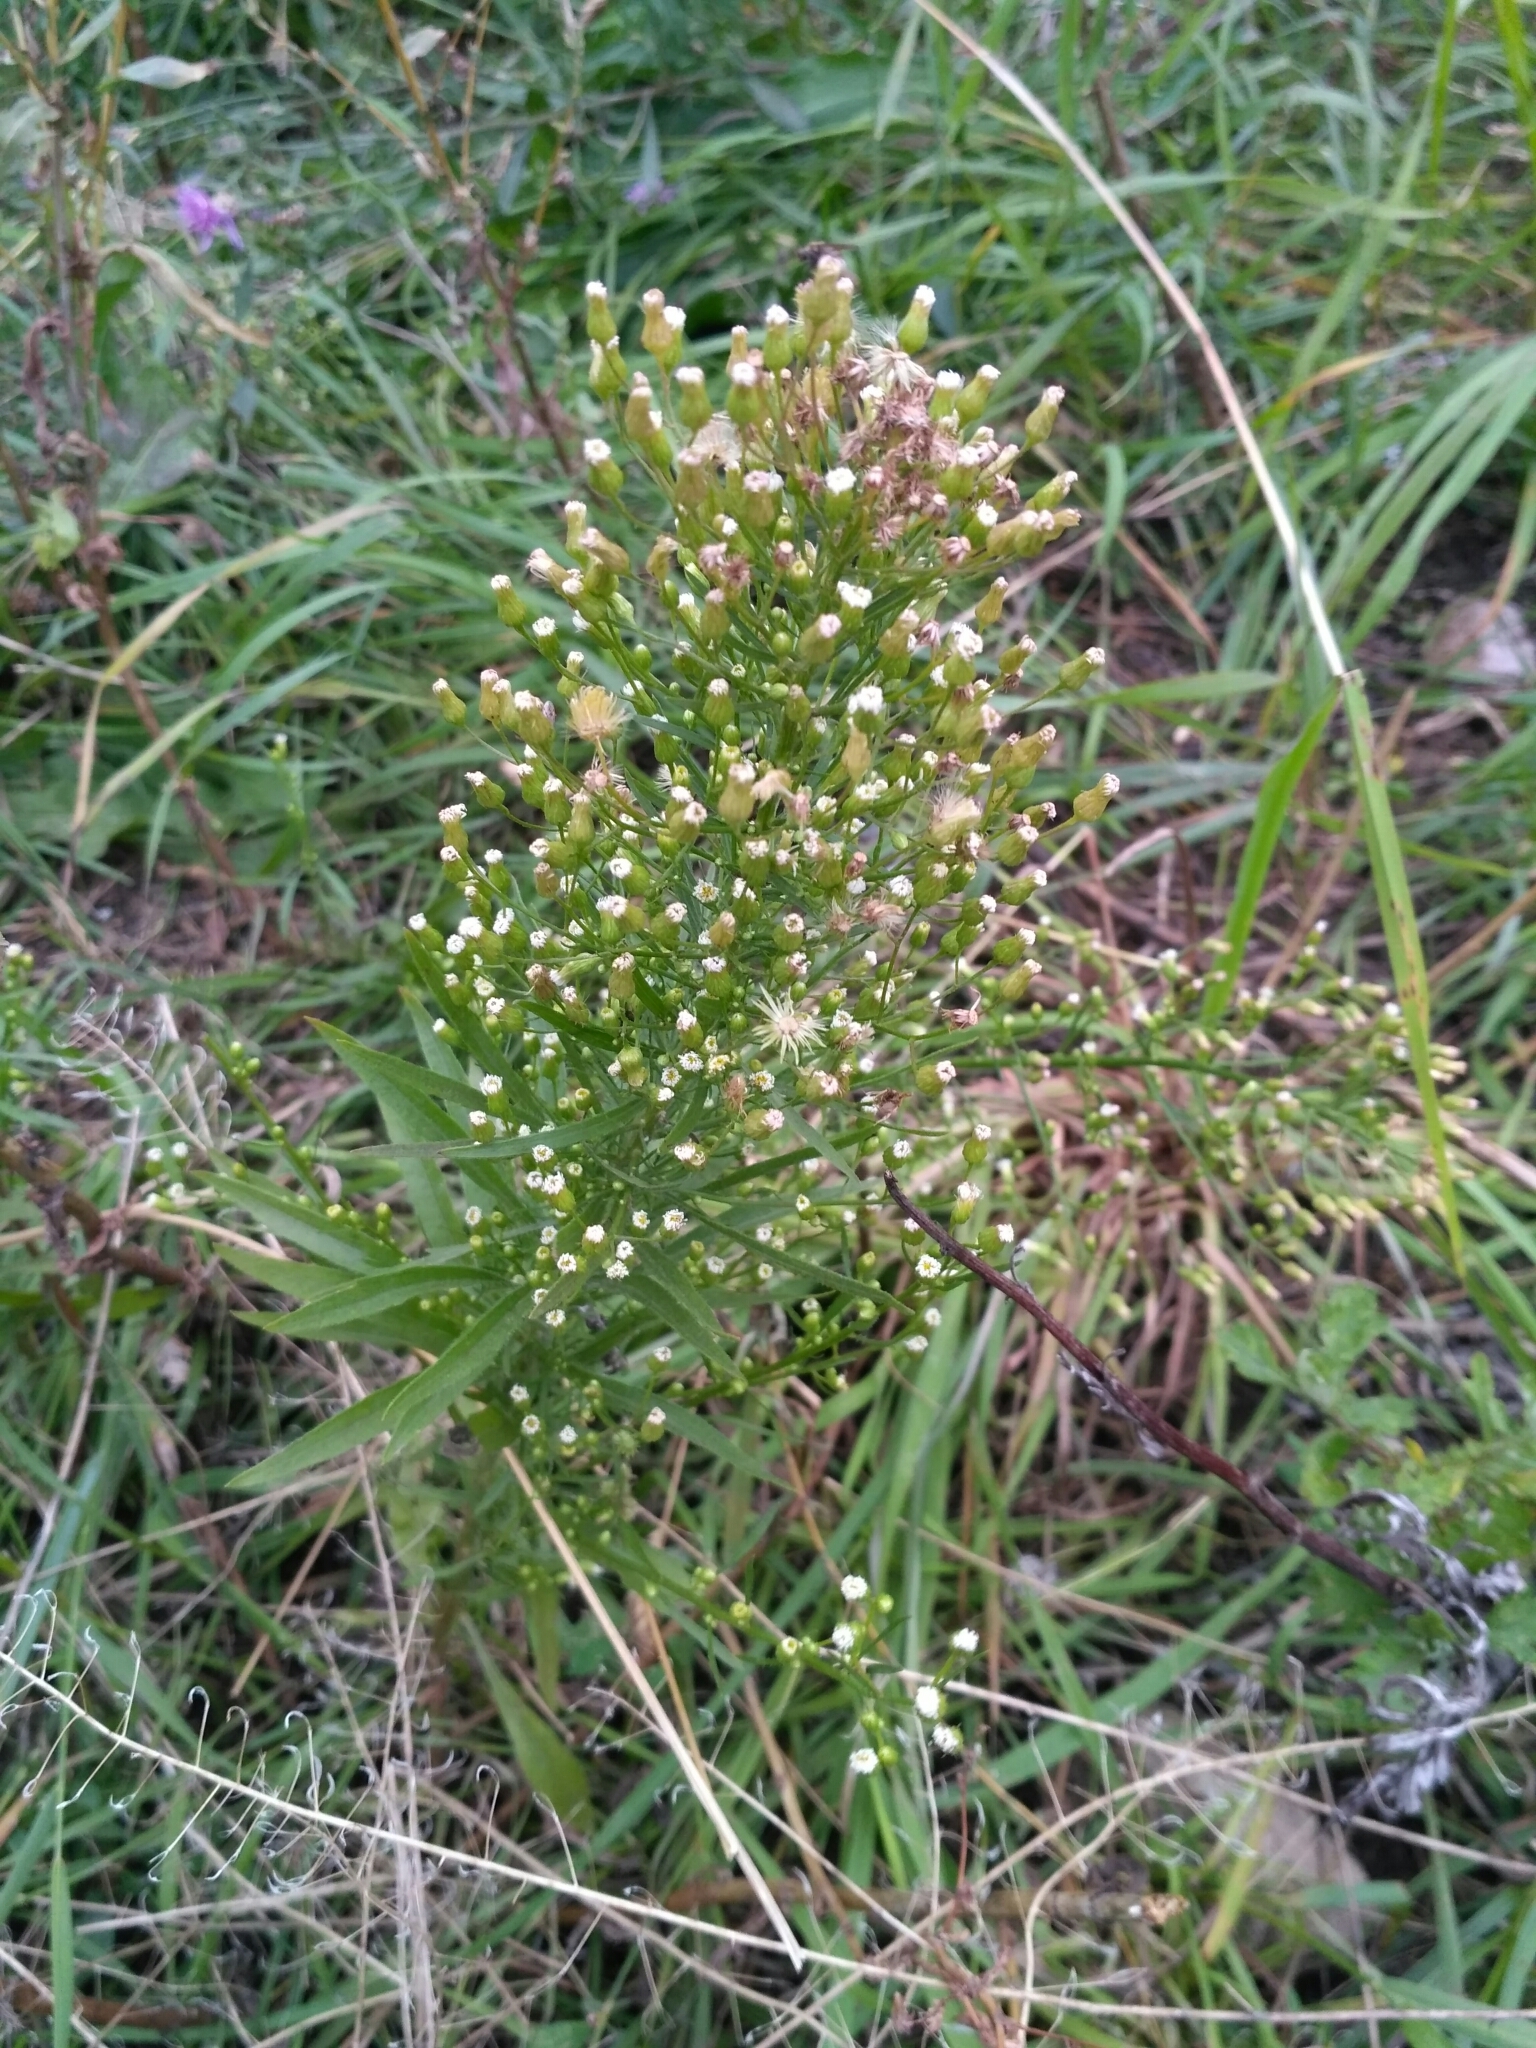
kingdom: Plantae
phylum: Tracheophyta
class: Magnoliopsida
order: Asterales
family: Asteraceae
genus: Erigeron
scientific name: Erigeron canadensis
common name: Canadian fleabane
